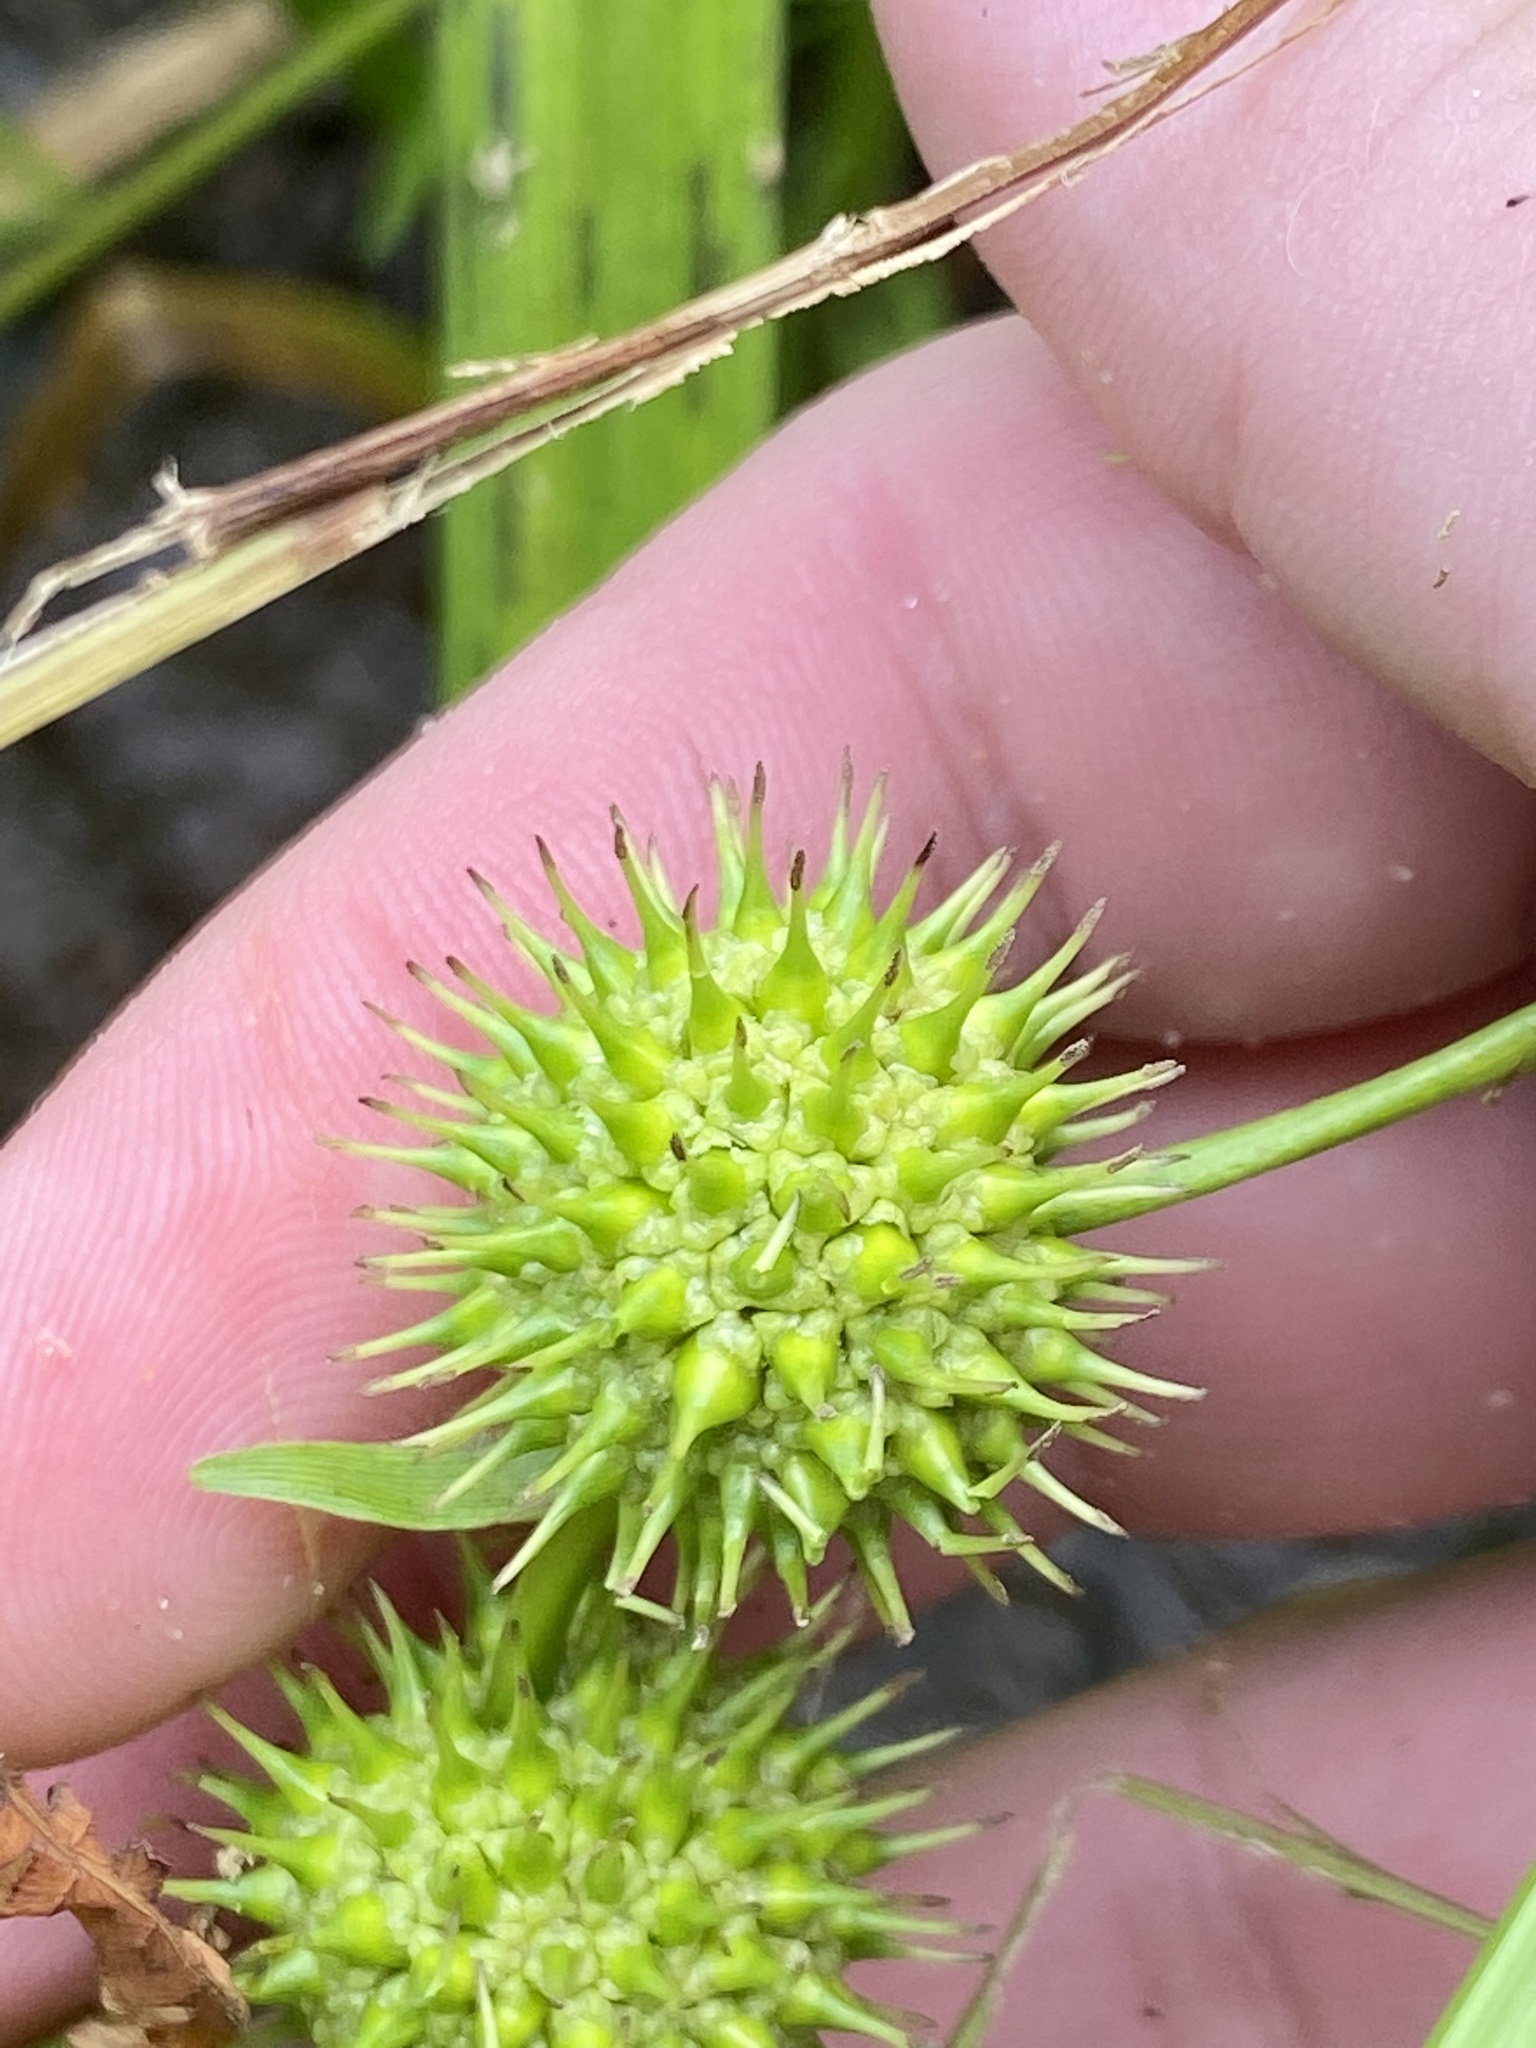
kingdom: Plantae
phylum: Tracheophyta
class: Liliopsida
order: Poales
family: Typhaceae
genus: Sparganium
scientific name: Sparganium americanum
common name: American burreed
